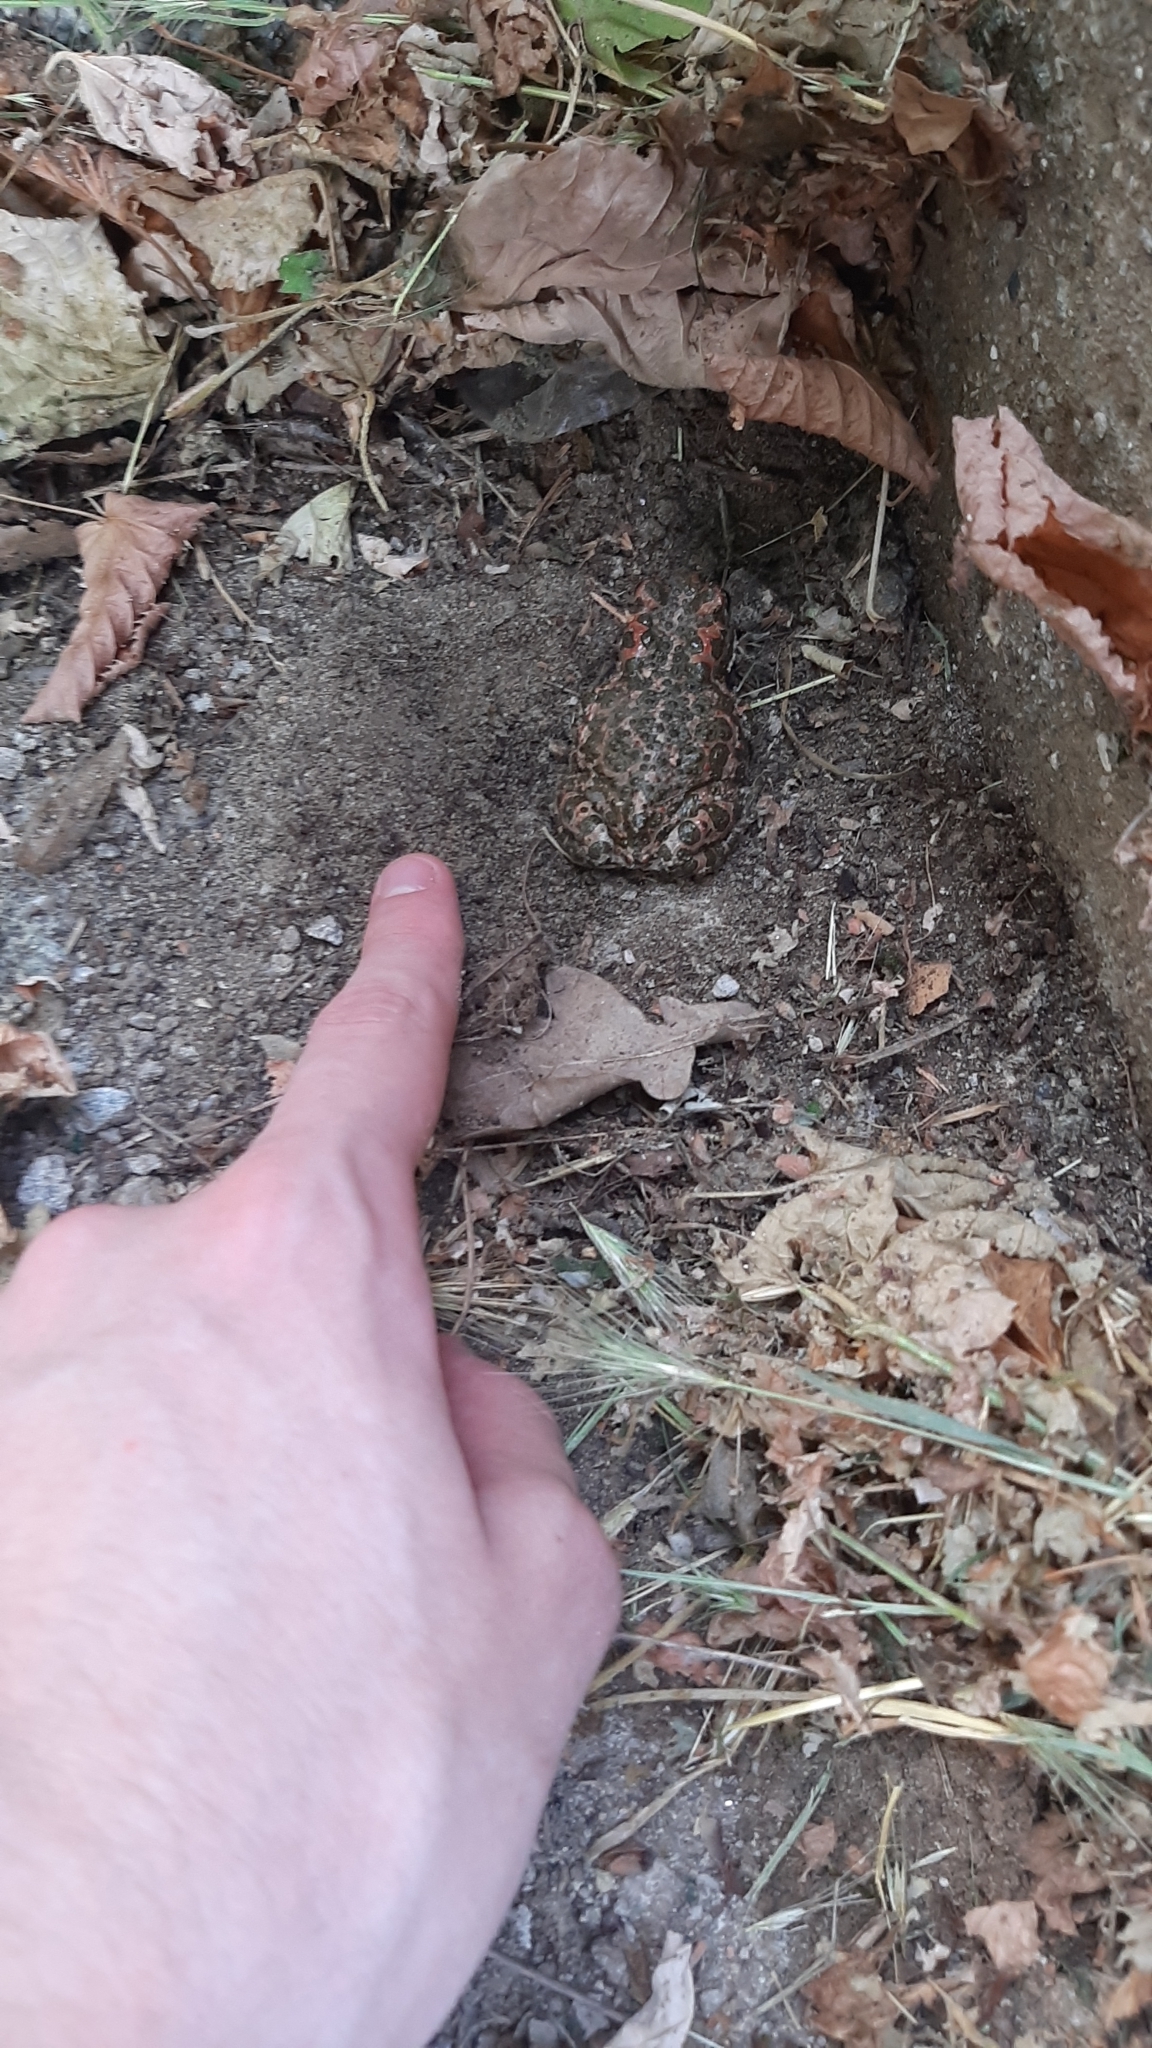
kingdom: Animalia
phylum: Chordata
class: Amphibia
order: Anura
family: Bufonidae
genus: Bufotes
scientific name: Bufotes viridis
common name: European green toad
